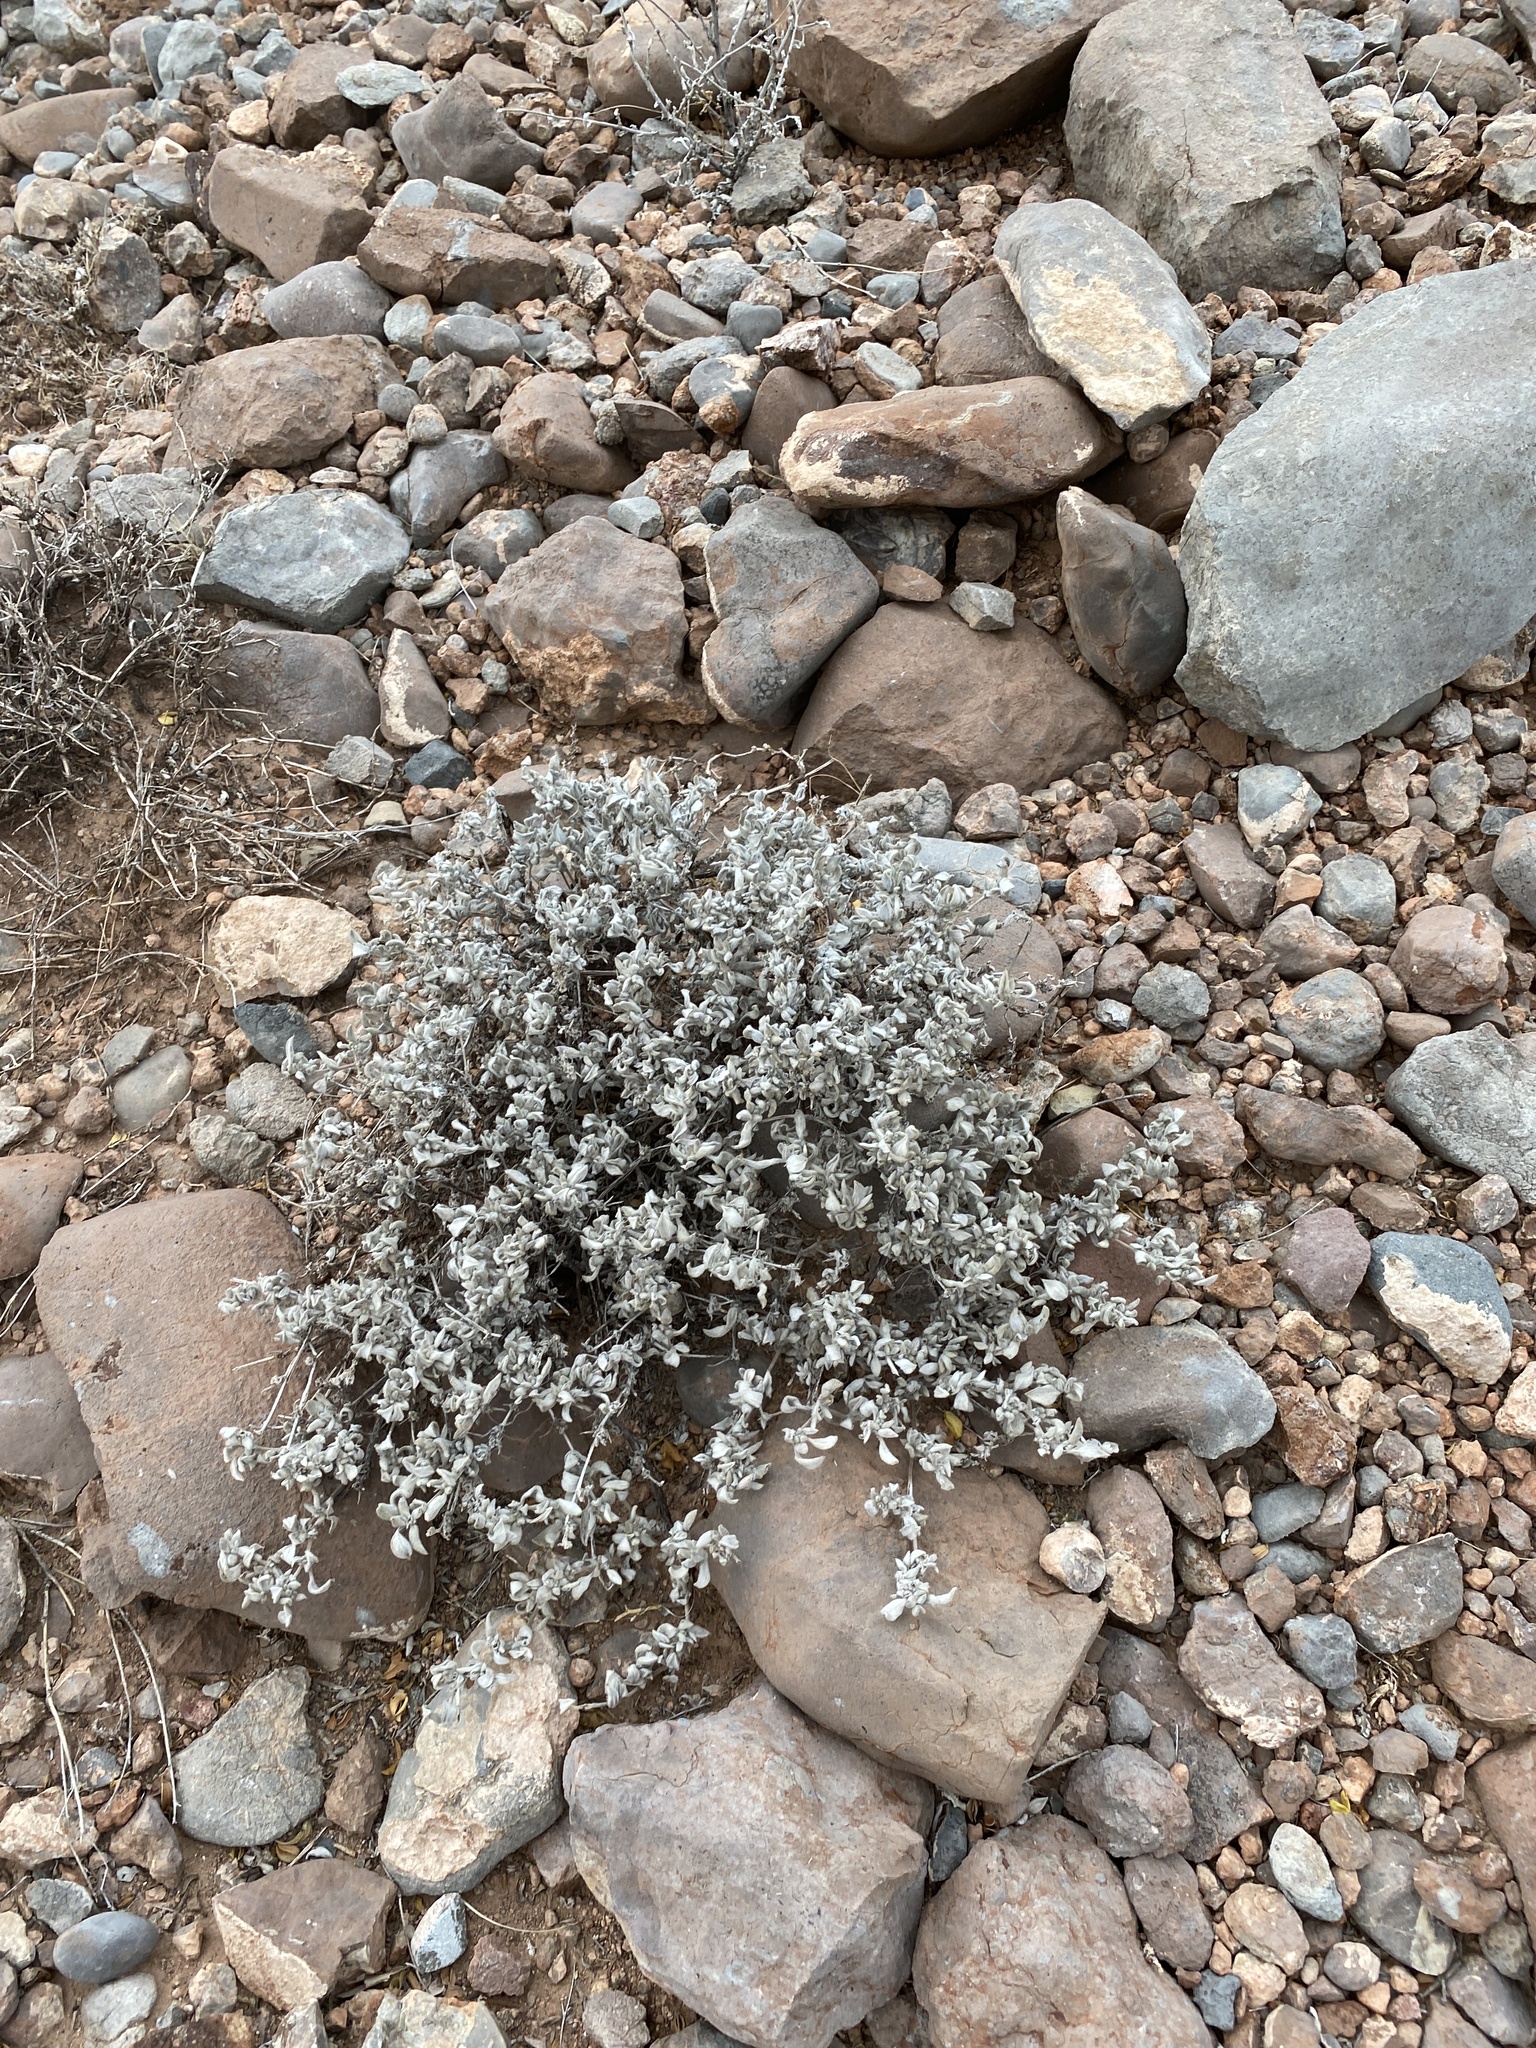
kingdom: Plantae
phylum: Tracheophyta
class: Magnoliopsida
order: Boraginales
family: Ehretiaceae
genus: Tiquilia
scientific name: Tiquilia canescens
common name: Hairy tiquilia
